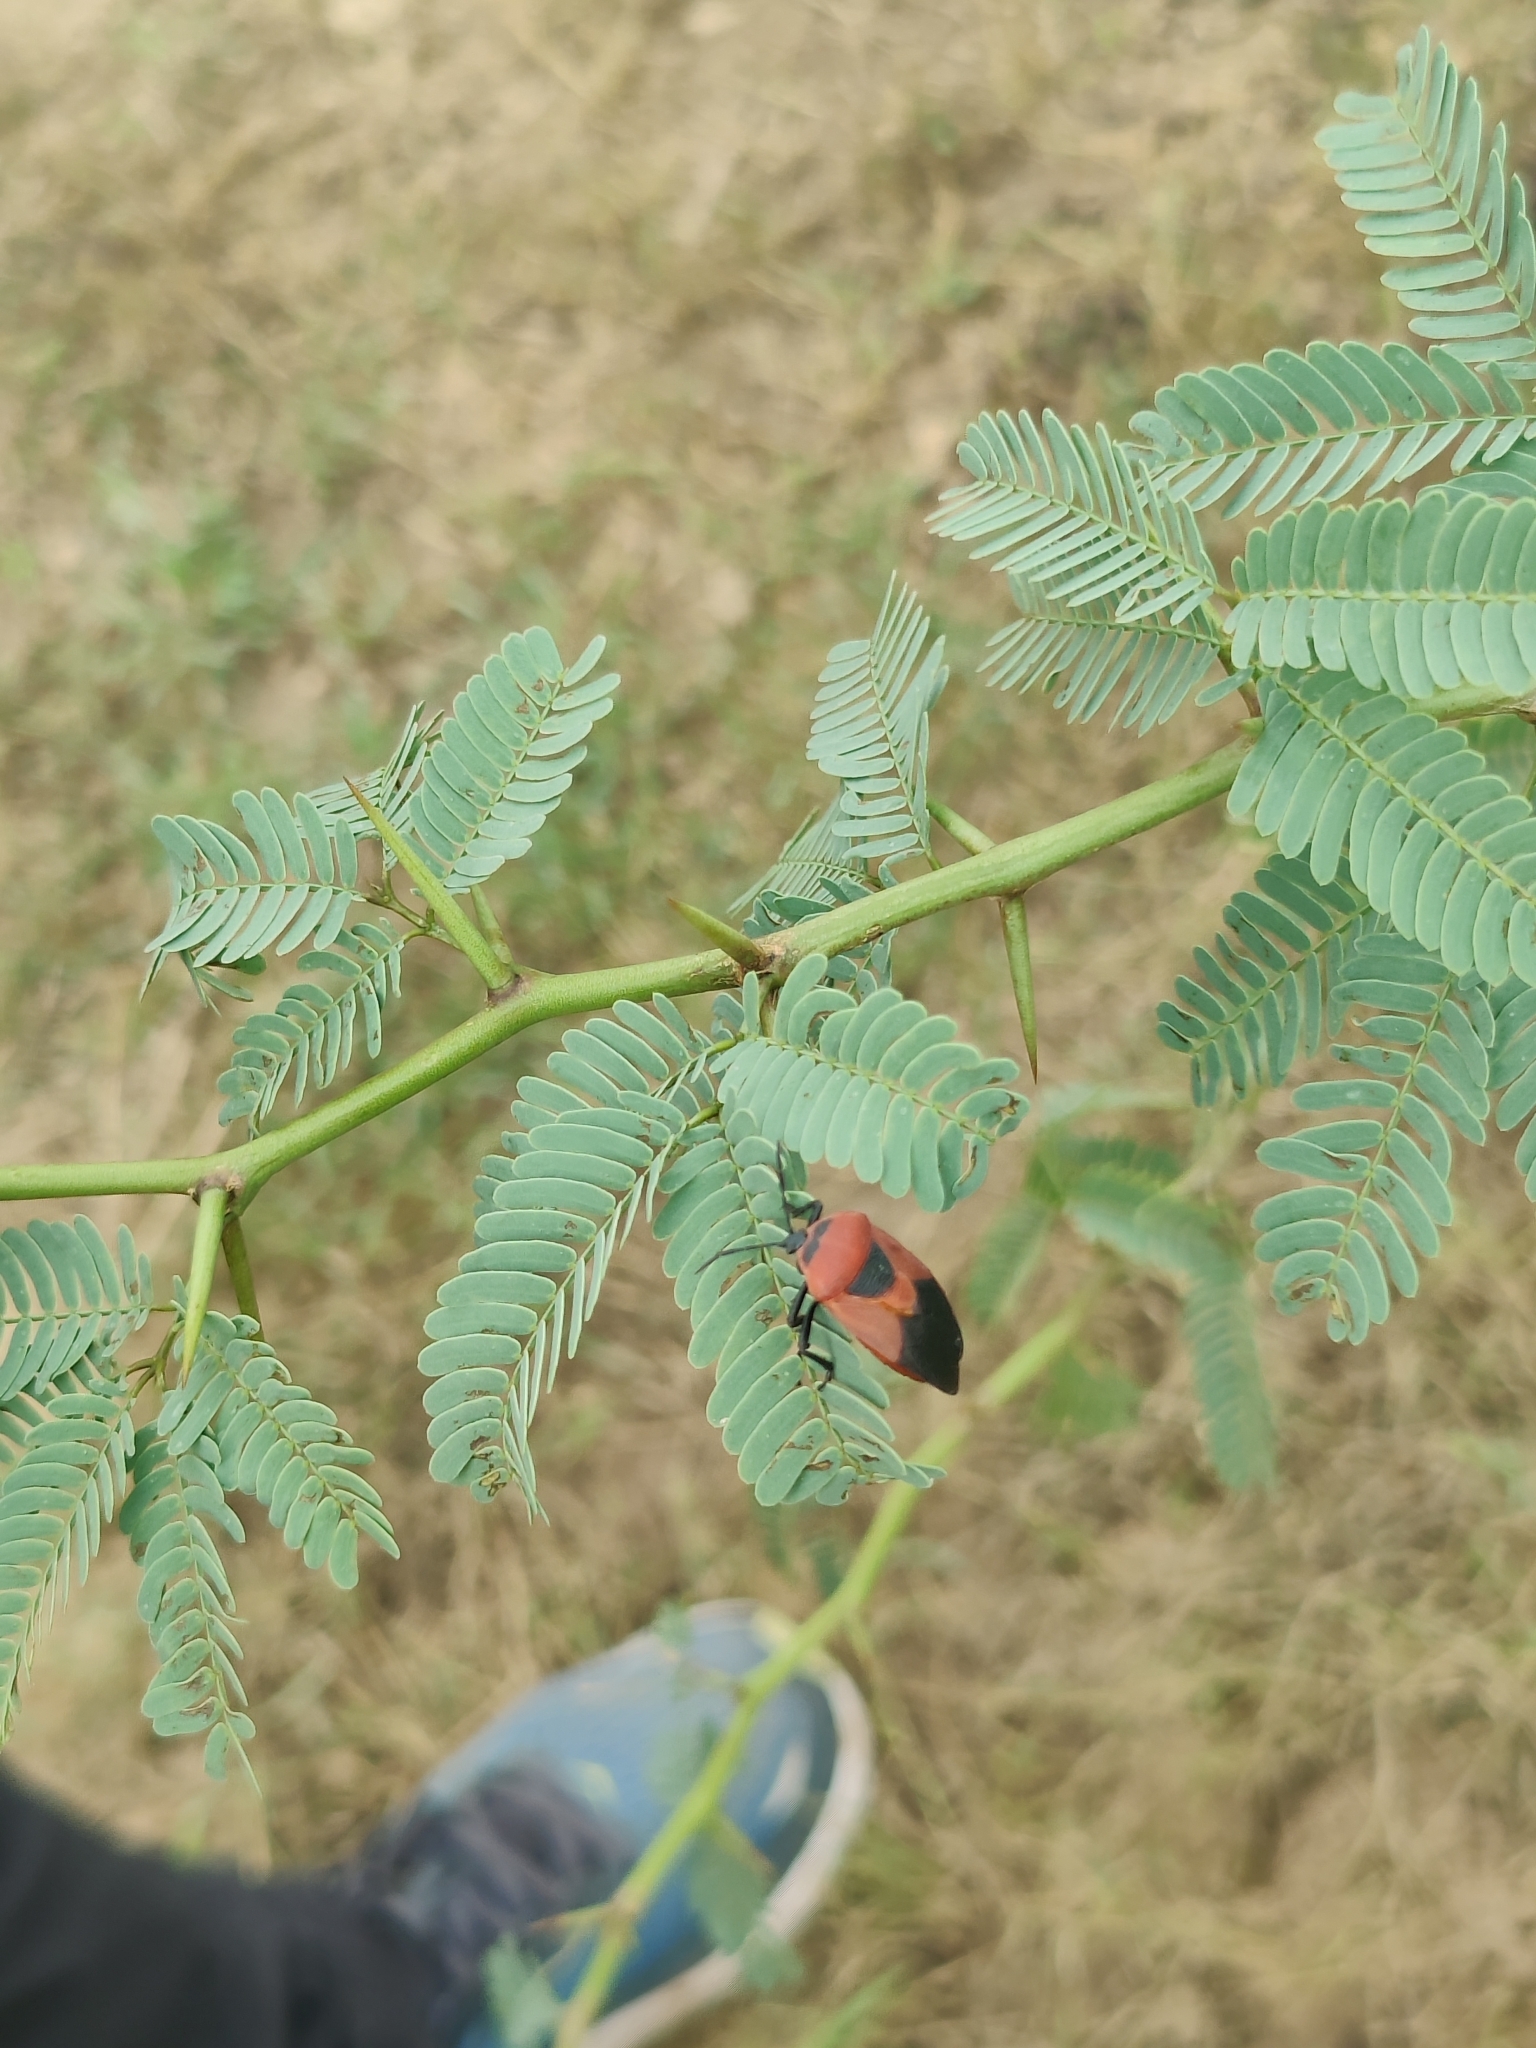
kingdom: Animalia
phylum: Arthropoda
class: Insecta
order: Hemiptera
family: Dinidoridae
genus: Coridius
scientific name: Coridius ianus
